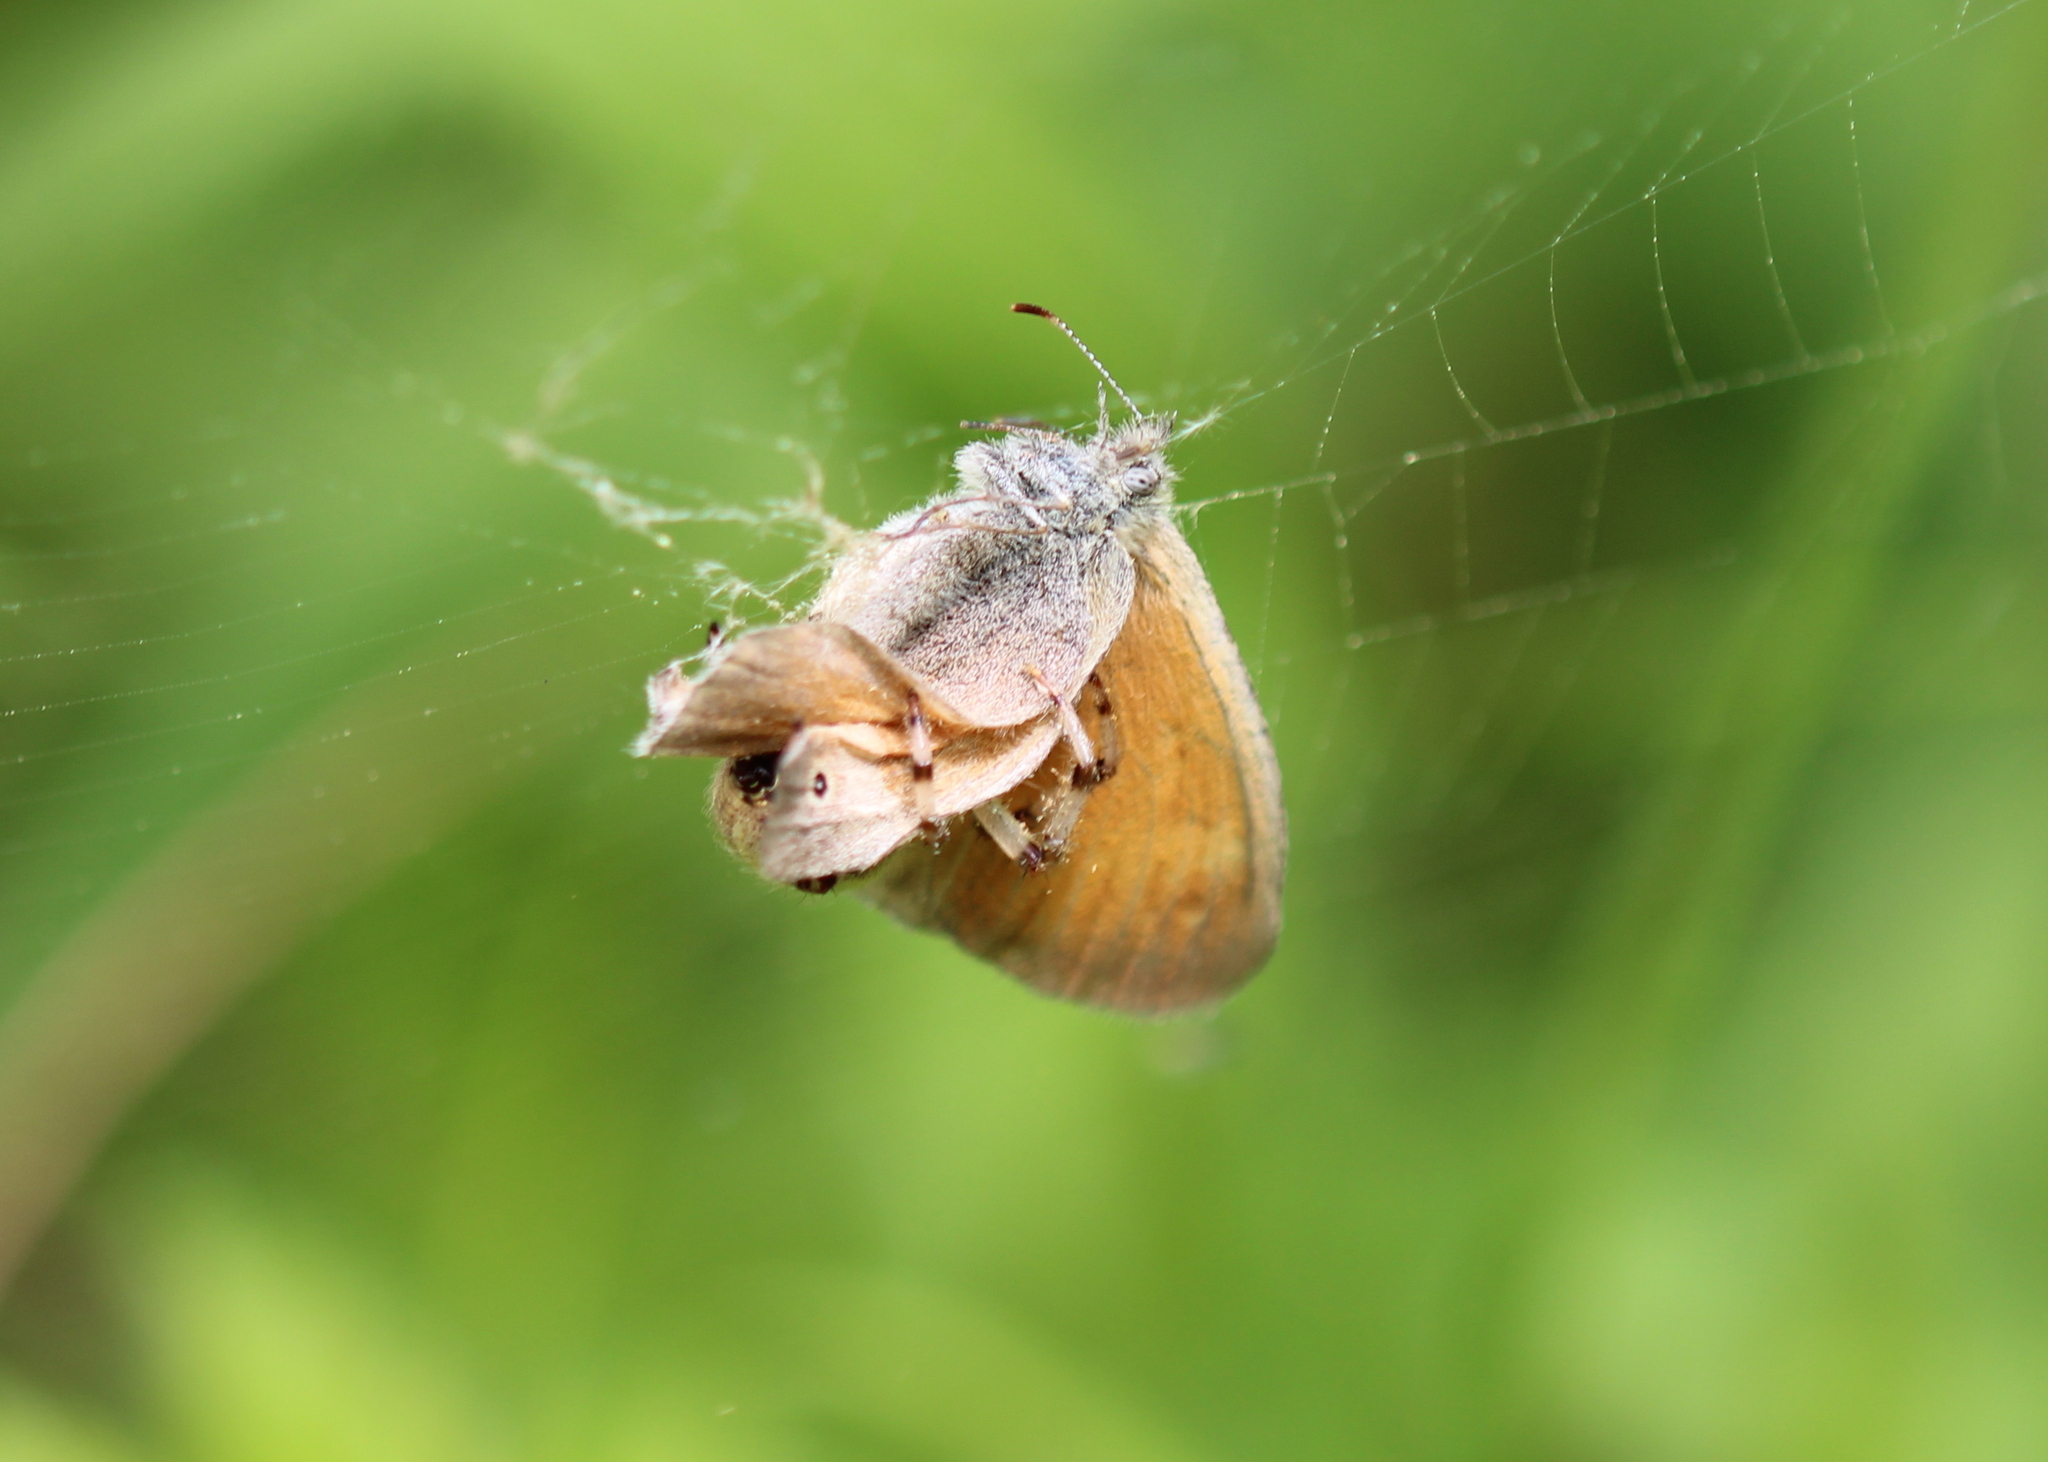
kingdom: Animalia
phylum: Arthropoda
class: Insecta
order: Lepidoptera
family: Nymphalidae
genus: Coenonympha
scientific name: Coenonympha california
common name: Common ringlet
